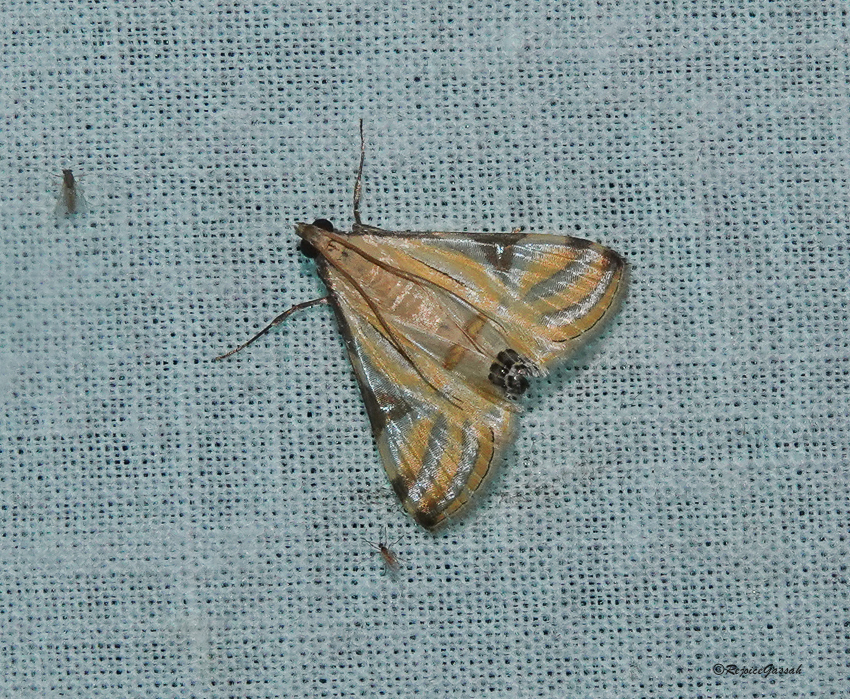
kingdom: Animalia
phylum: Arthropoda
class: Insecta
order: Lepidoptera
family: Crambidae
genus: Talanga
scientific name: Talanga sexpunctalis
